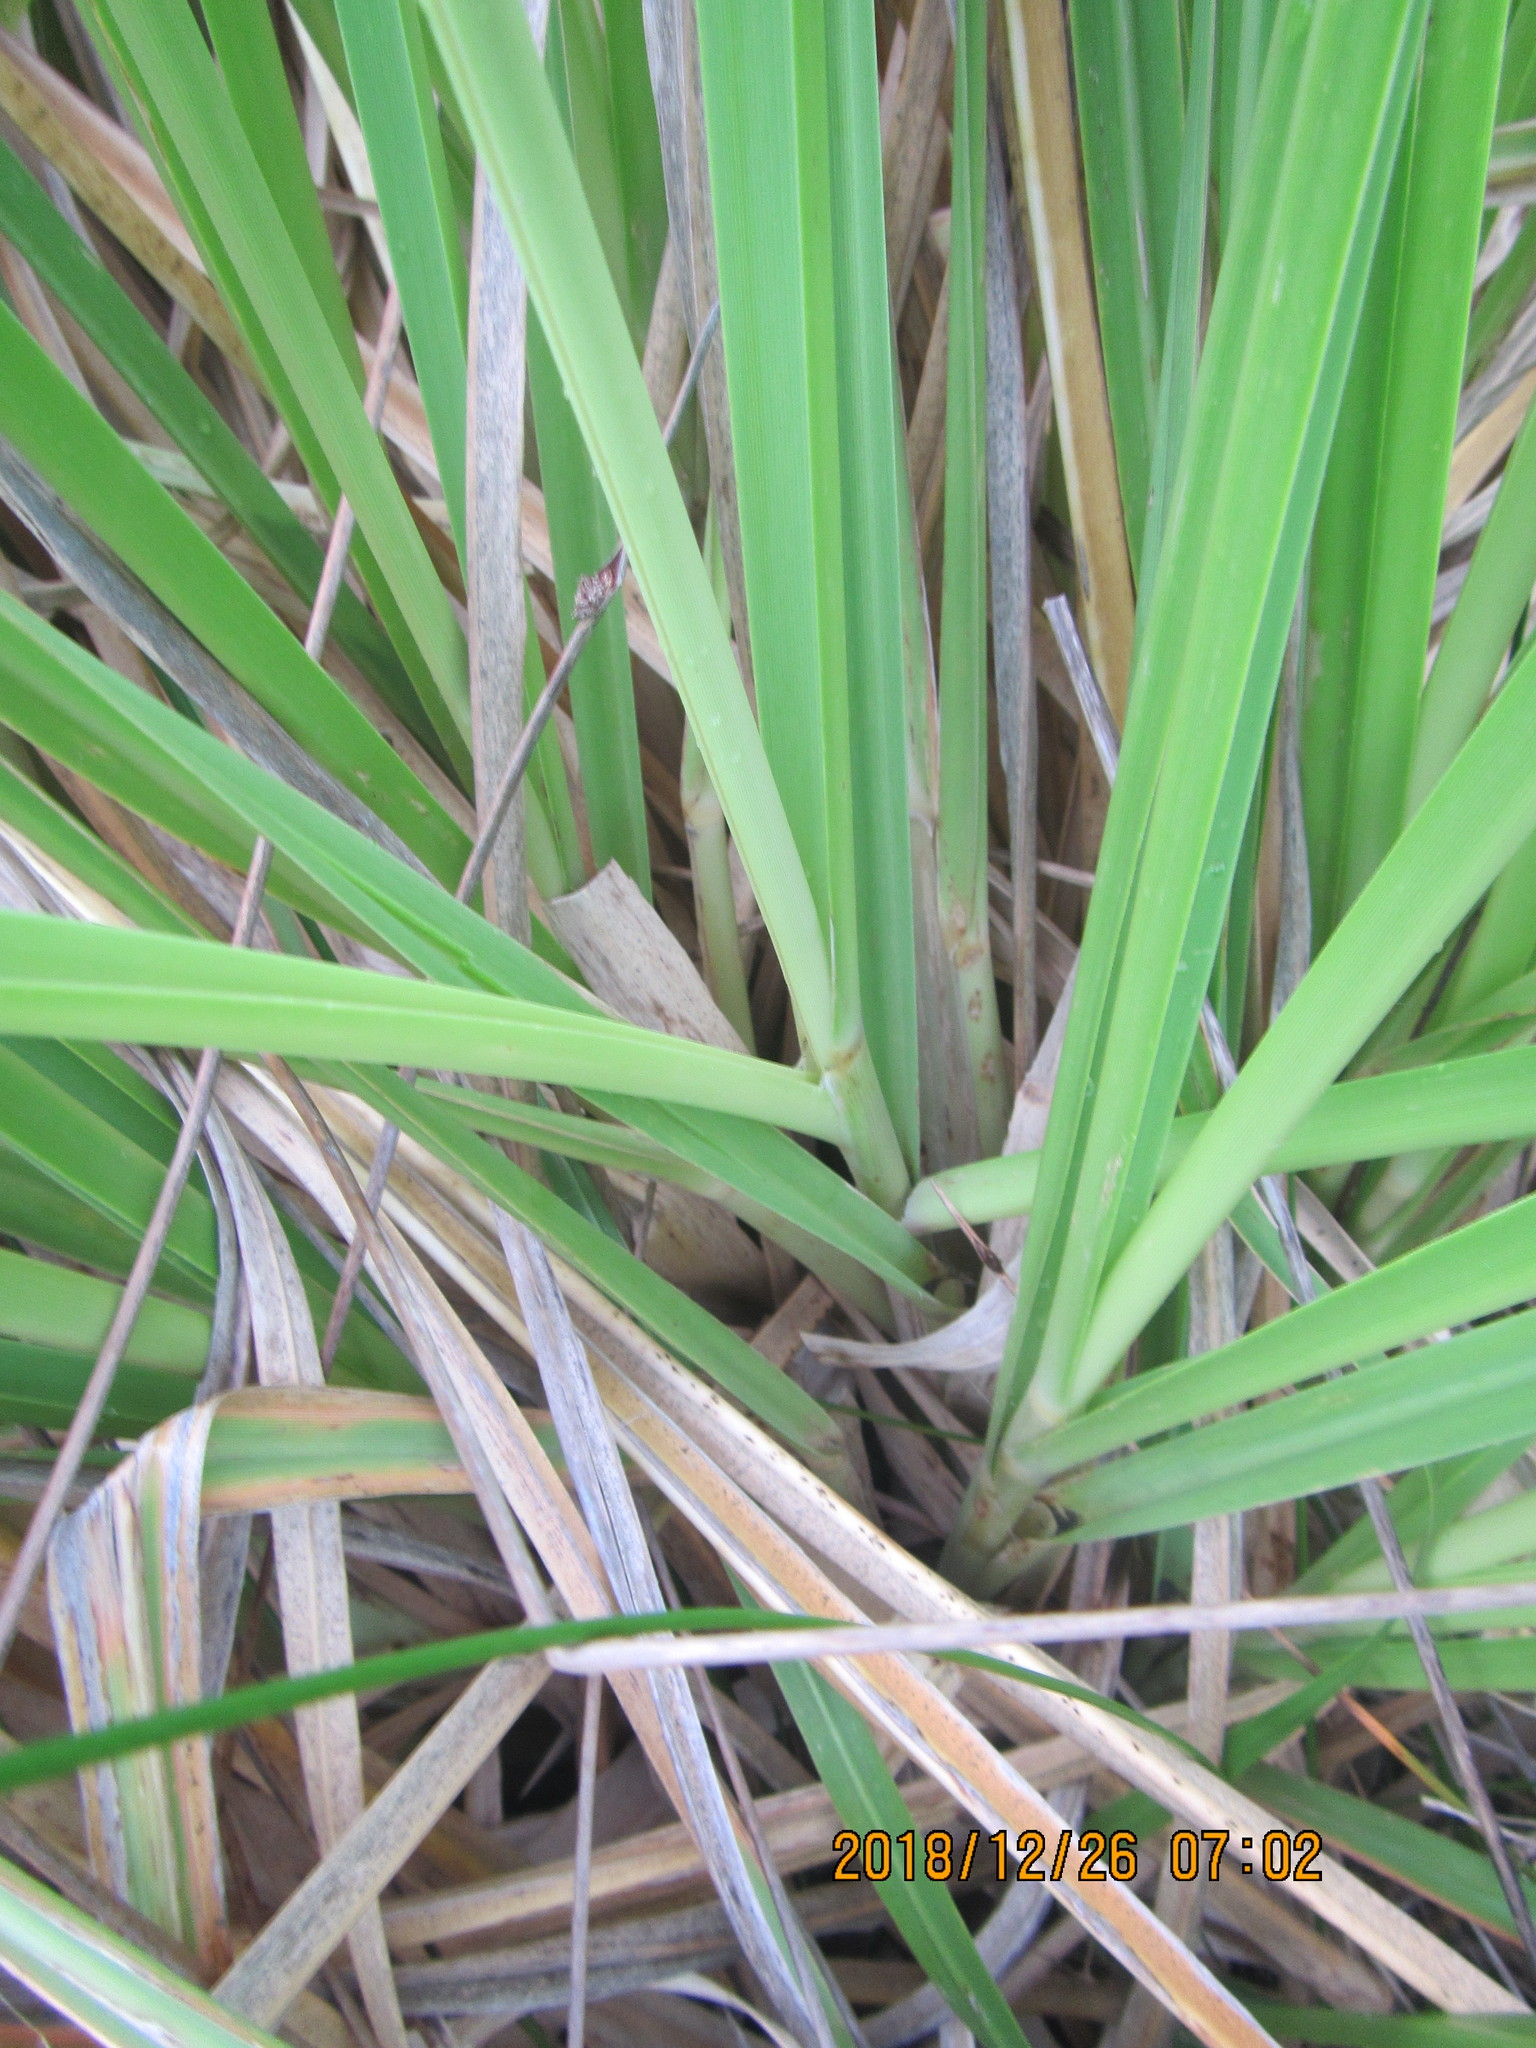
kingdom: Plantae
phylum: Tracheophyta
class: Liliopsida
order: Poales
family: Poaceae
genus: Cortaderia
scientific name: Cortaderia selloana
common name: Uruguayan pampas grass
